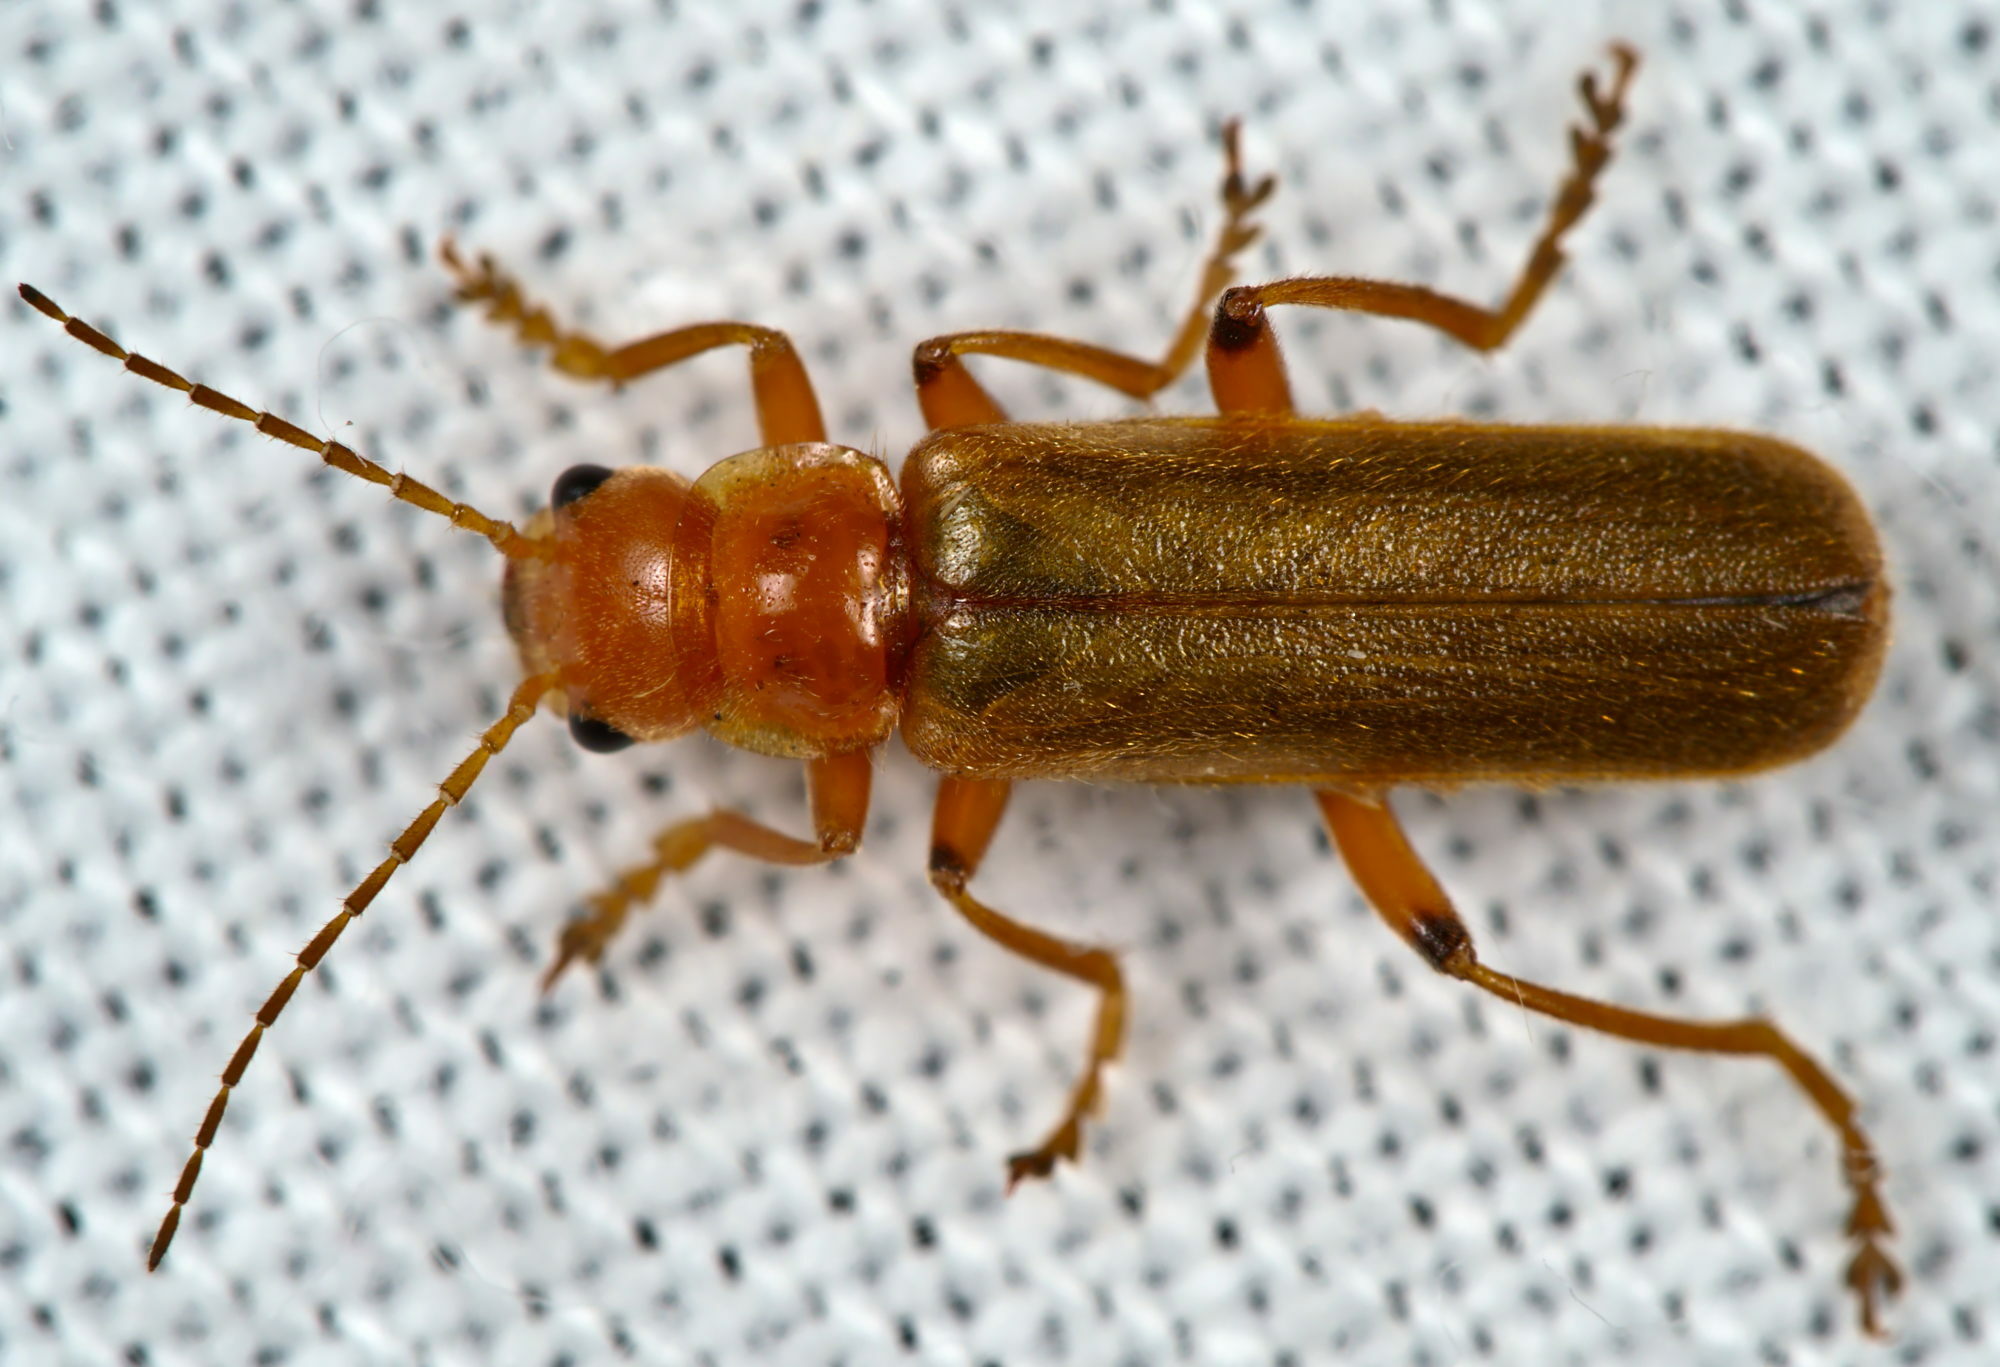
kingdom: Animalia
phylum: Arthropoda
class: Insecta
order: Coleoptera
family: Cantharidae
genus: Cantharis
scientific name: Cantharis cryptica
